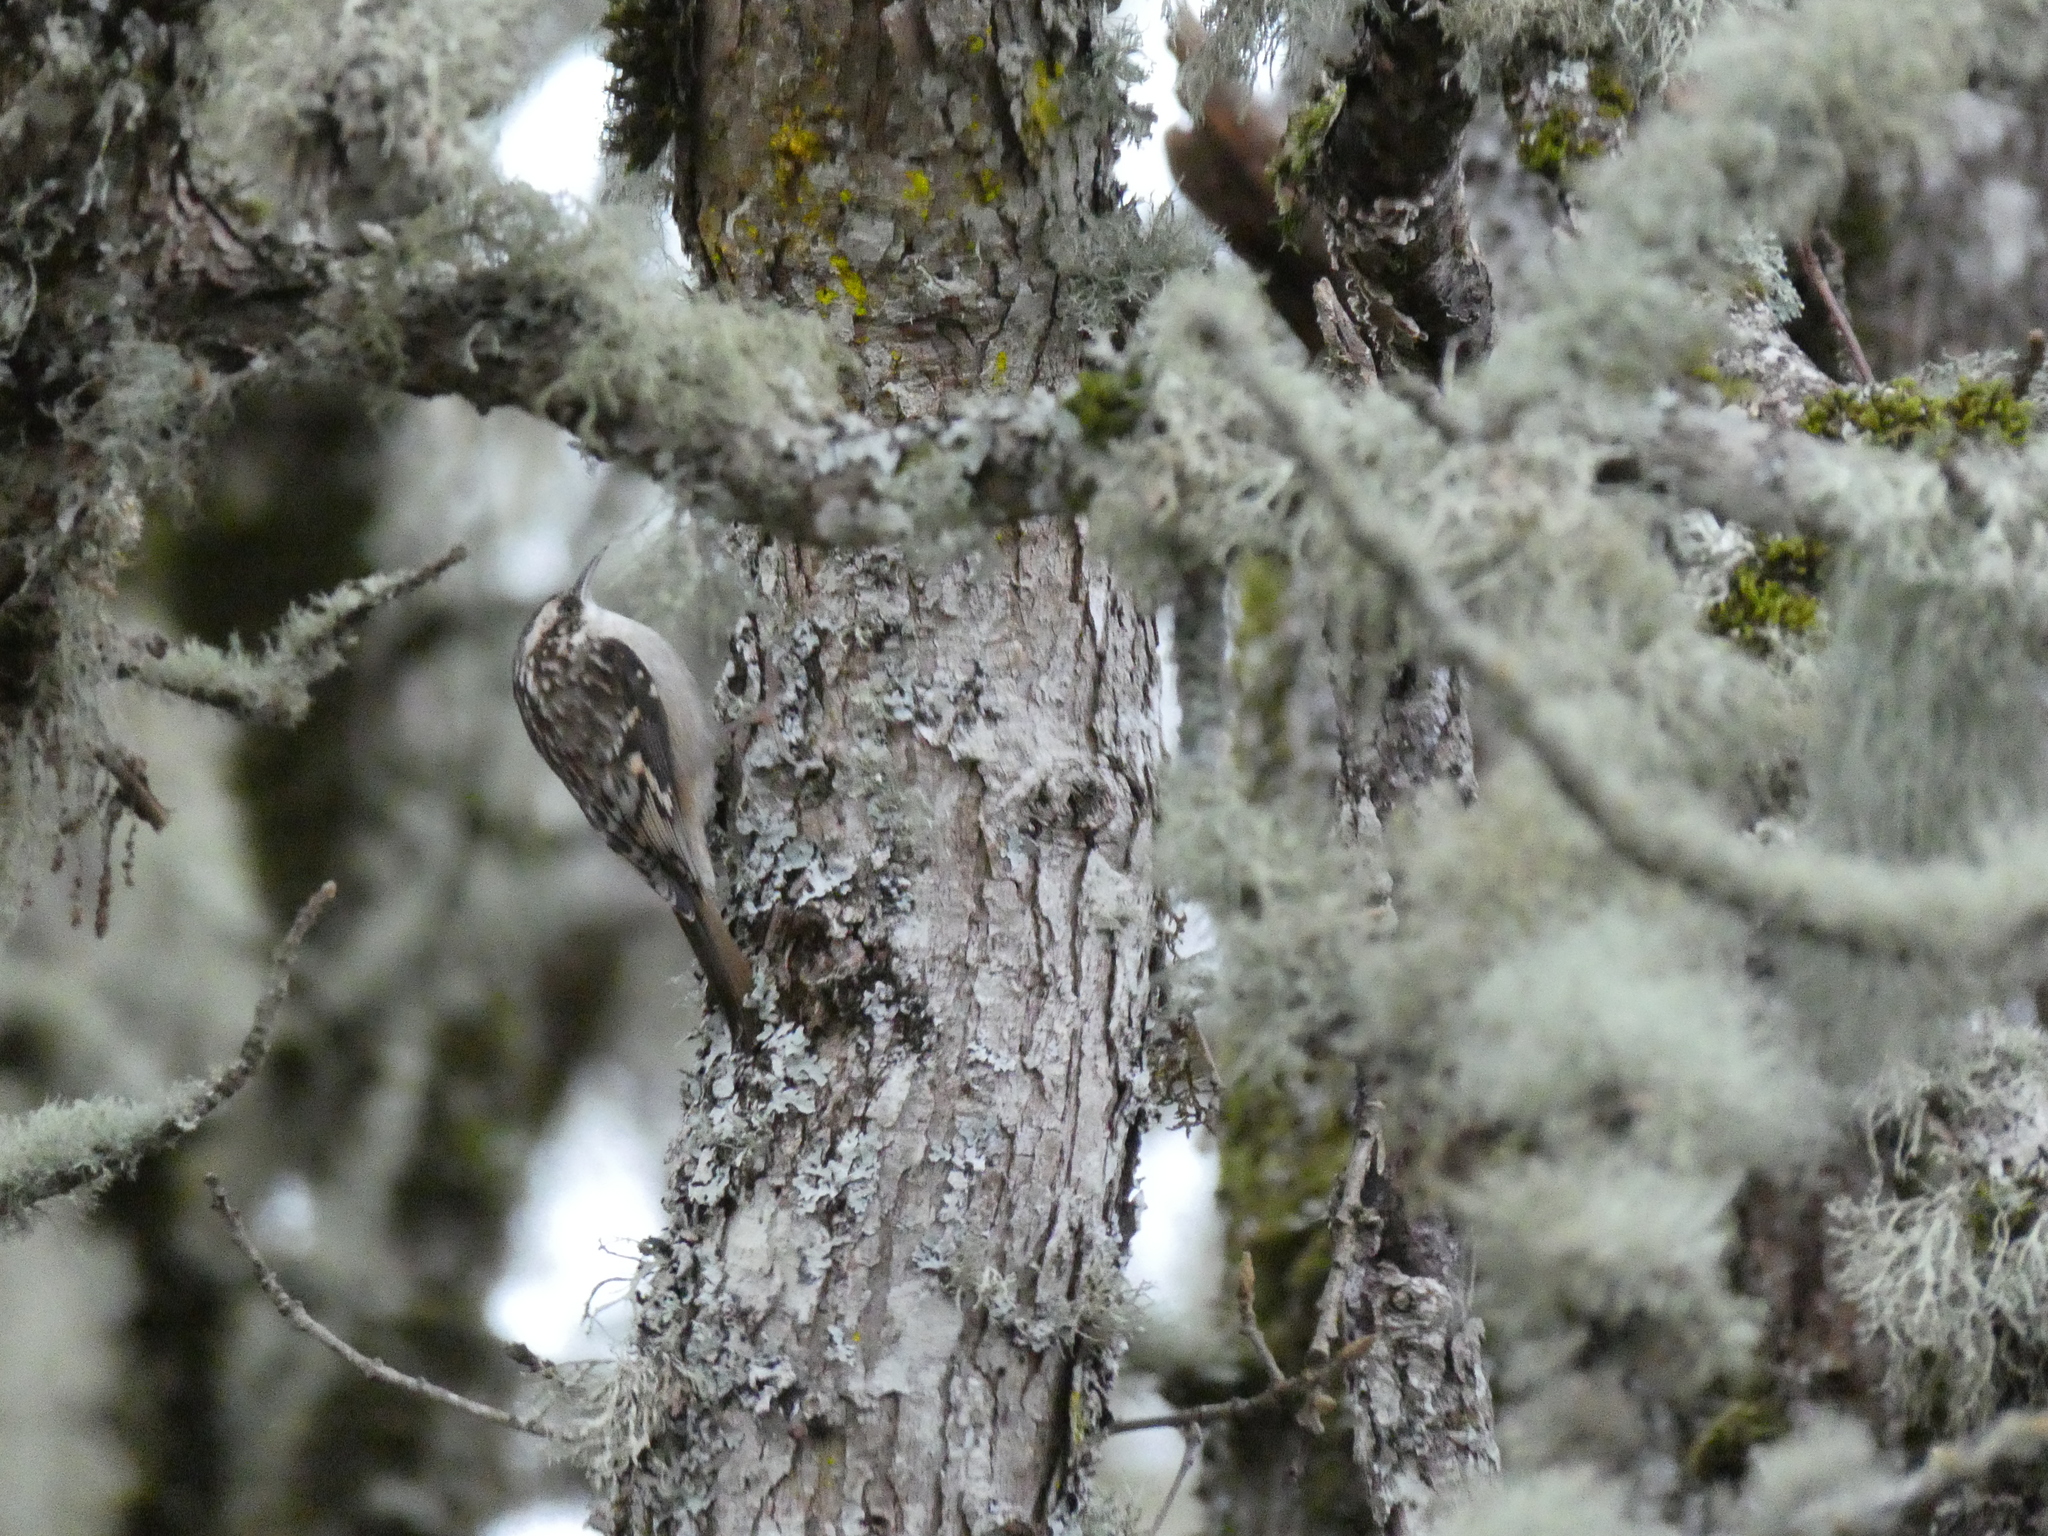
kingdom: Animalia
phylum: Chordata
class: Aves
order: Passeriformes
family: Certhiidae
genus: Certhia
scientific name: Certhia americana
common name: Brown creeper
